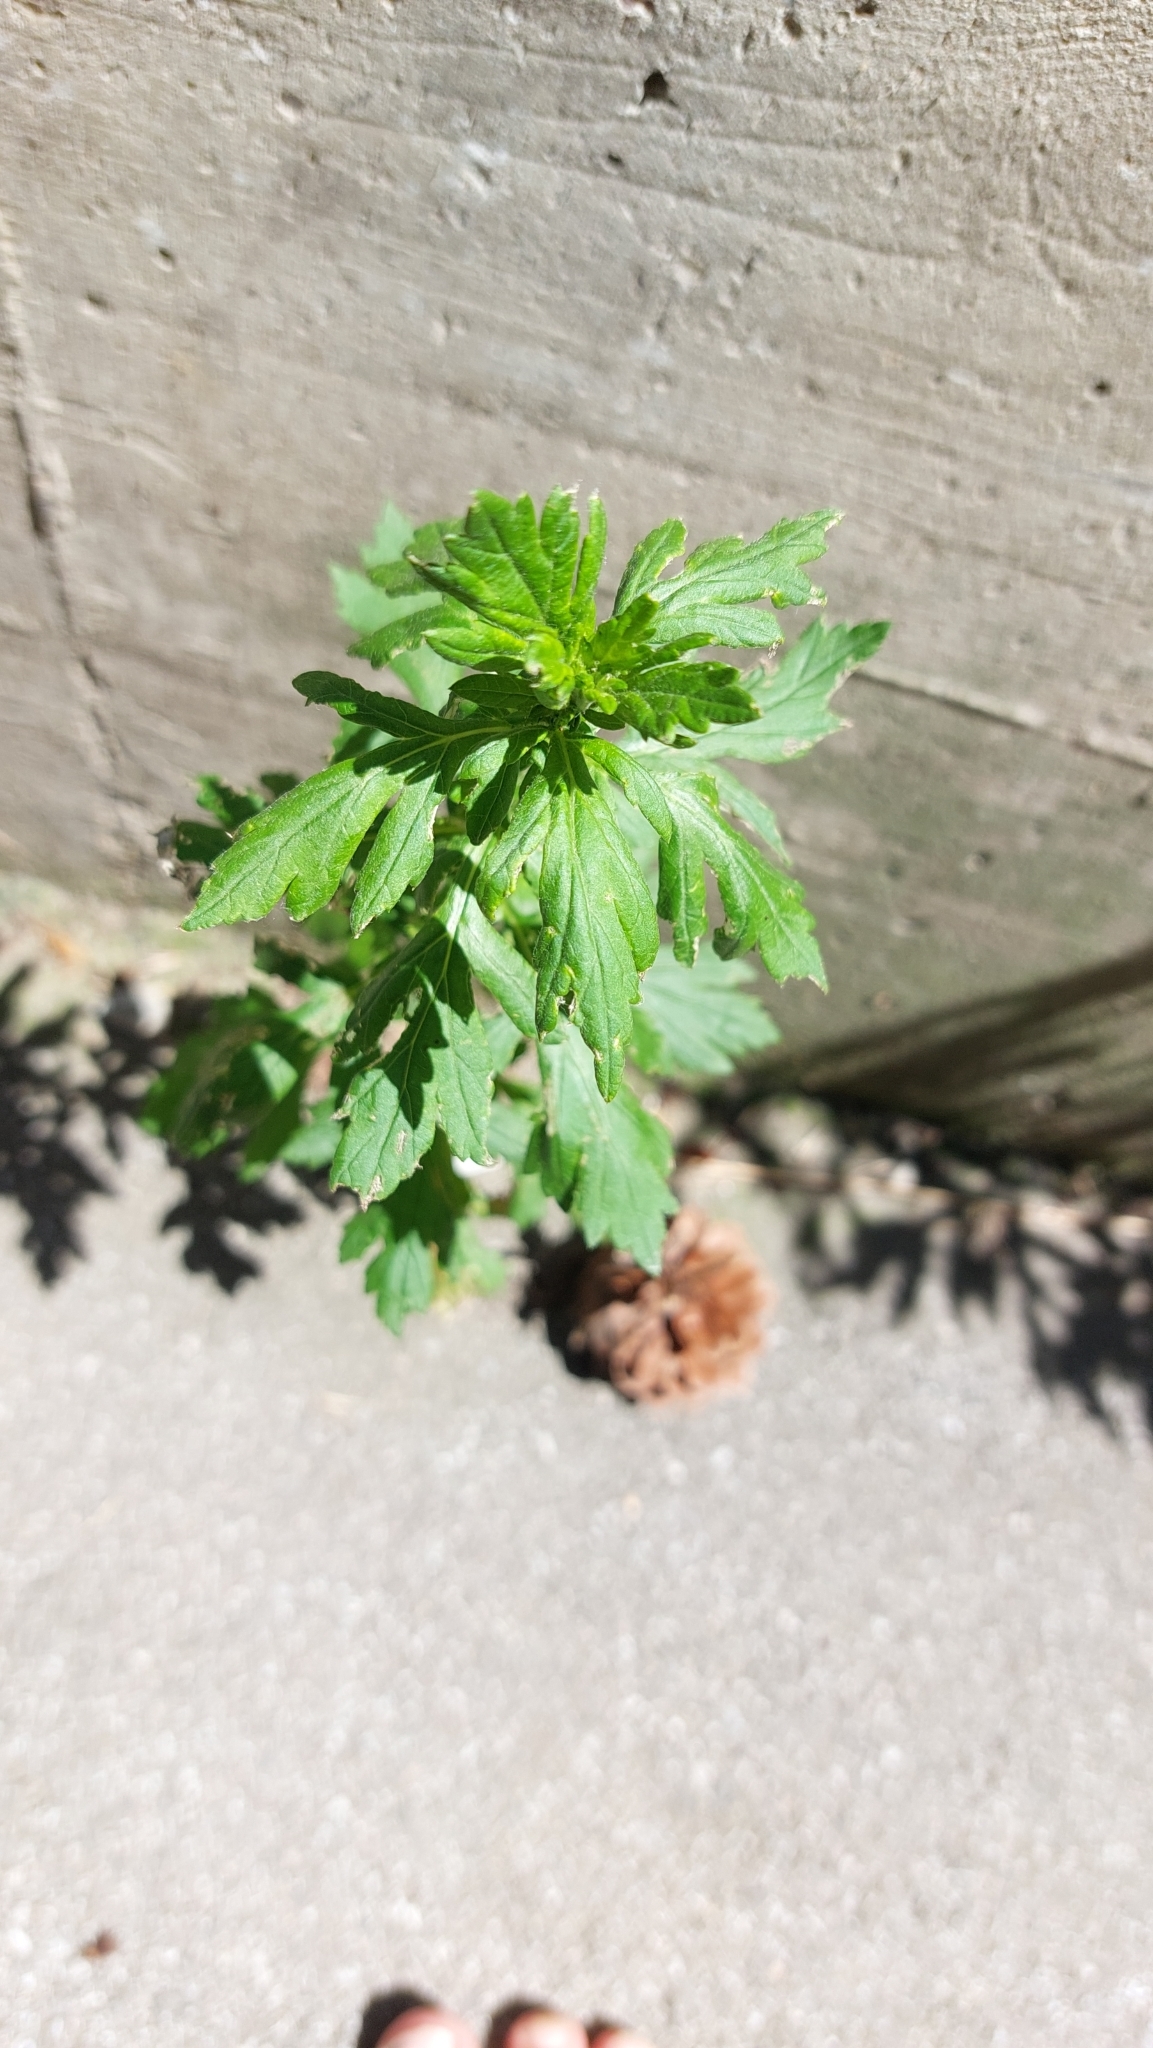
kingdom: Plantae
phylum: Tracheophyta
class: Magnoliopsida
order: Asterales
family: Asteraceae
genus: Artemisia
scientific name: Artemisia vulgaris
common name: Mugwort
